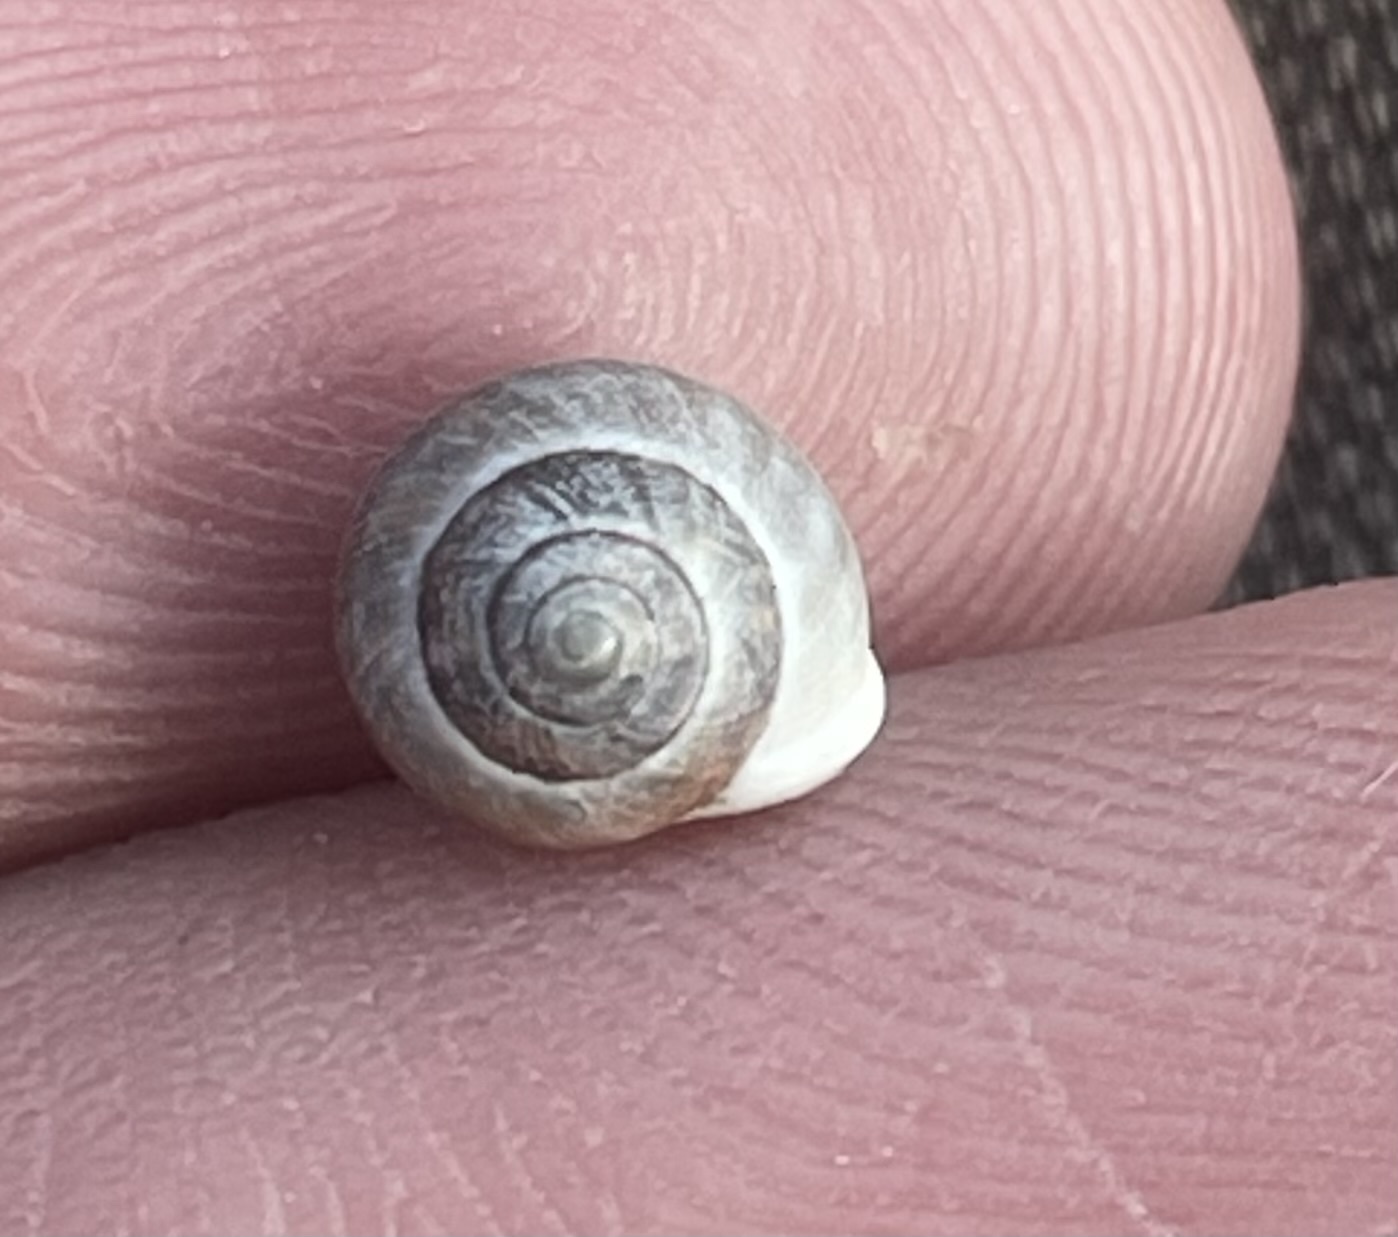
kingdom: Animalia
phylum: Mollusca
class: Gastropoda
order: Cycloneritida
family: Helicinidae
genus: Helicina
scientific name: Helicina orbiculata
